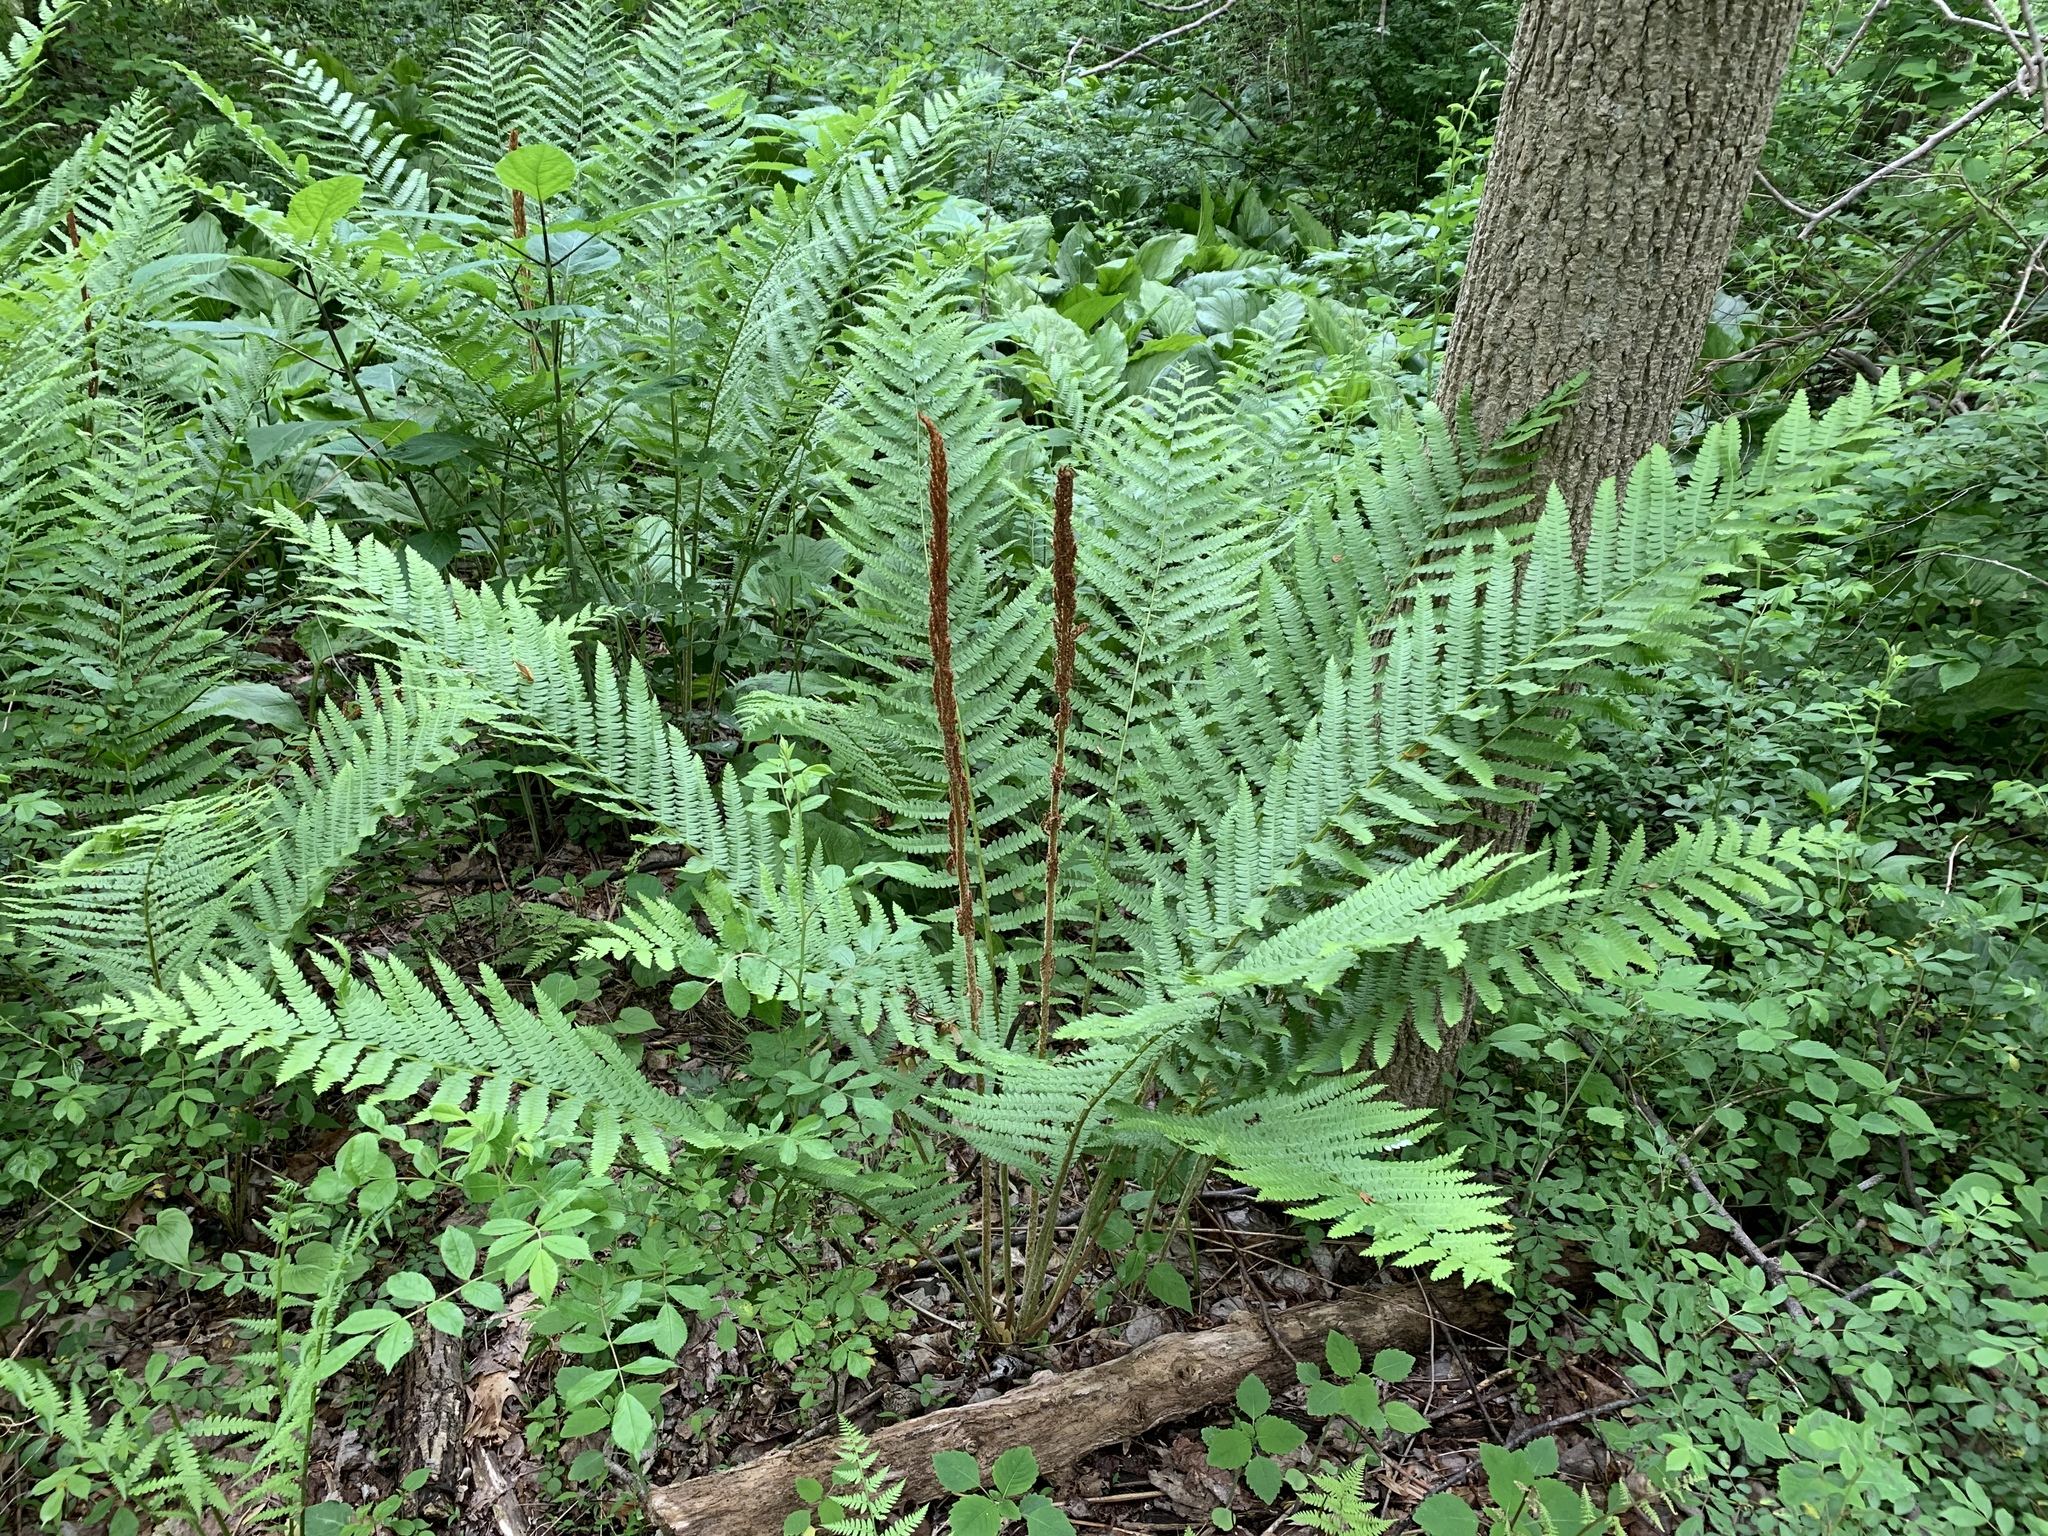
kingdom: Plantae
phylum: Tracheophyta
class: Polypodiopsida
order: Osmundales
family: Osmundaceae
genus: Osmundastrum
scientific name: Osmundastrum cinnamomeum
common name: Cinnamon fern
